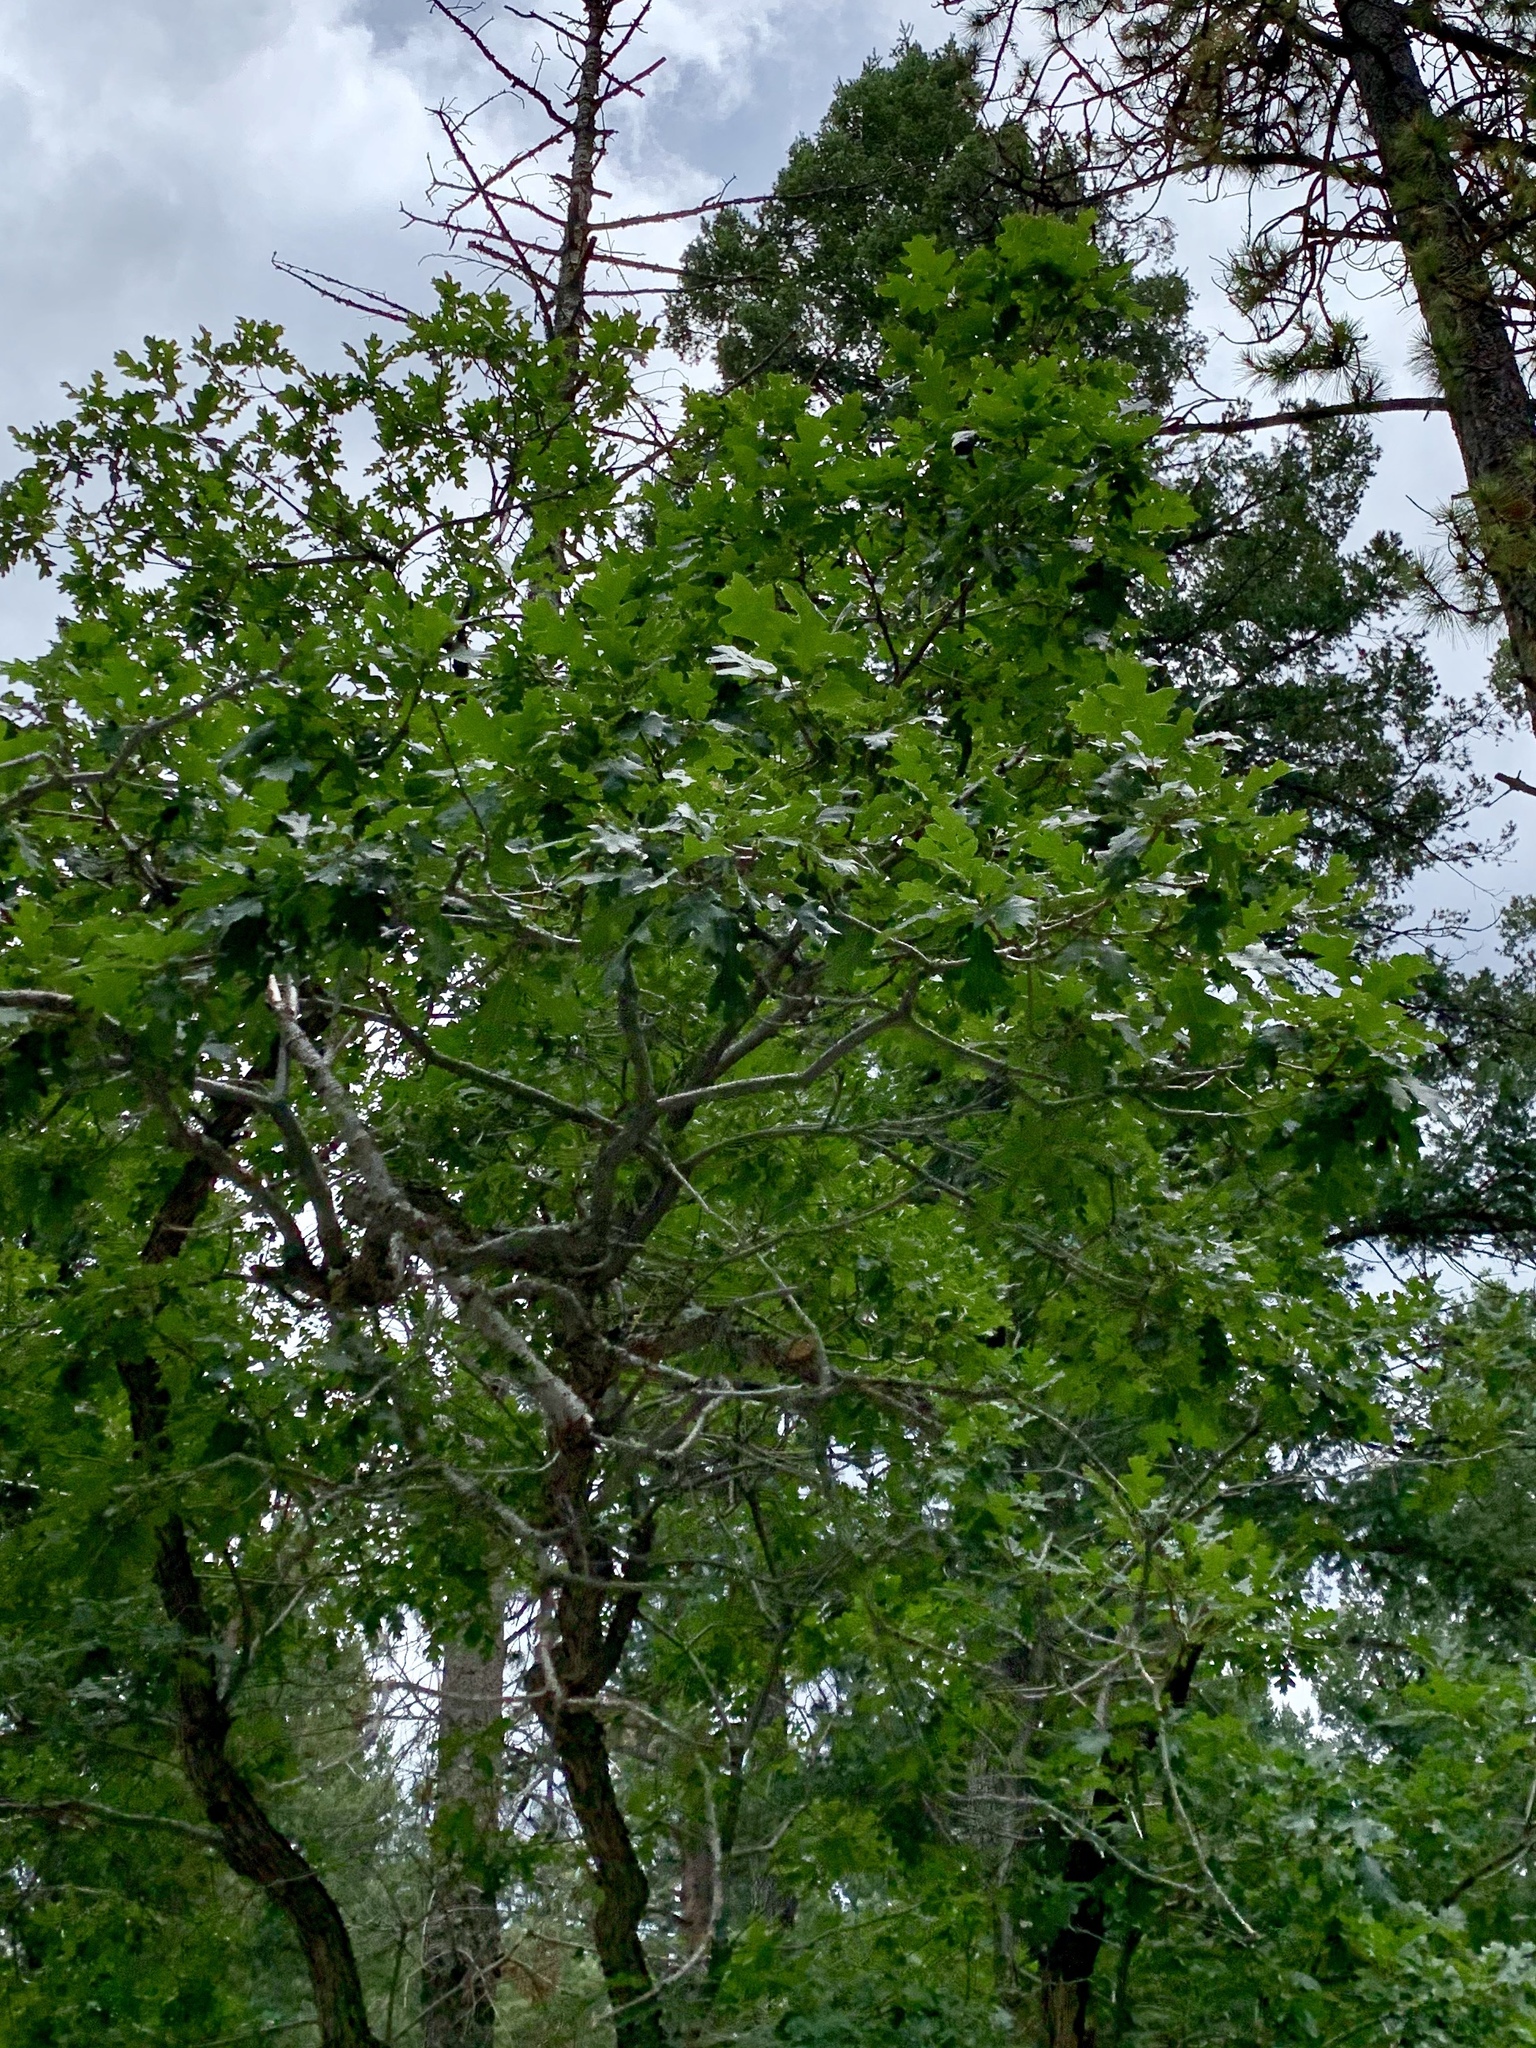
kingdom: Plantae
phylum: Tracheophyta
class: Magnoliopsida
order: Fagales
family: Fagaceae
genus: Quercus
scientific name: Quercus gambelii
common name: Gambel oak
